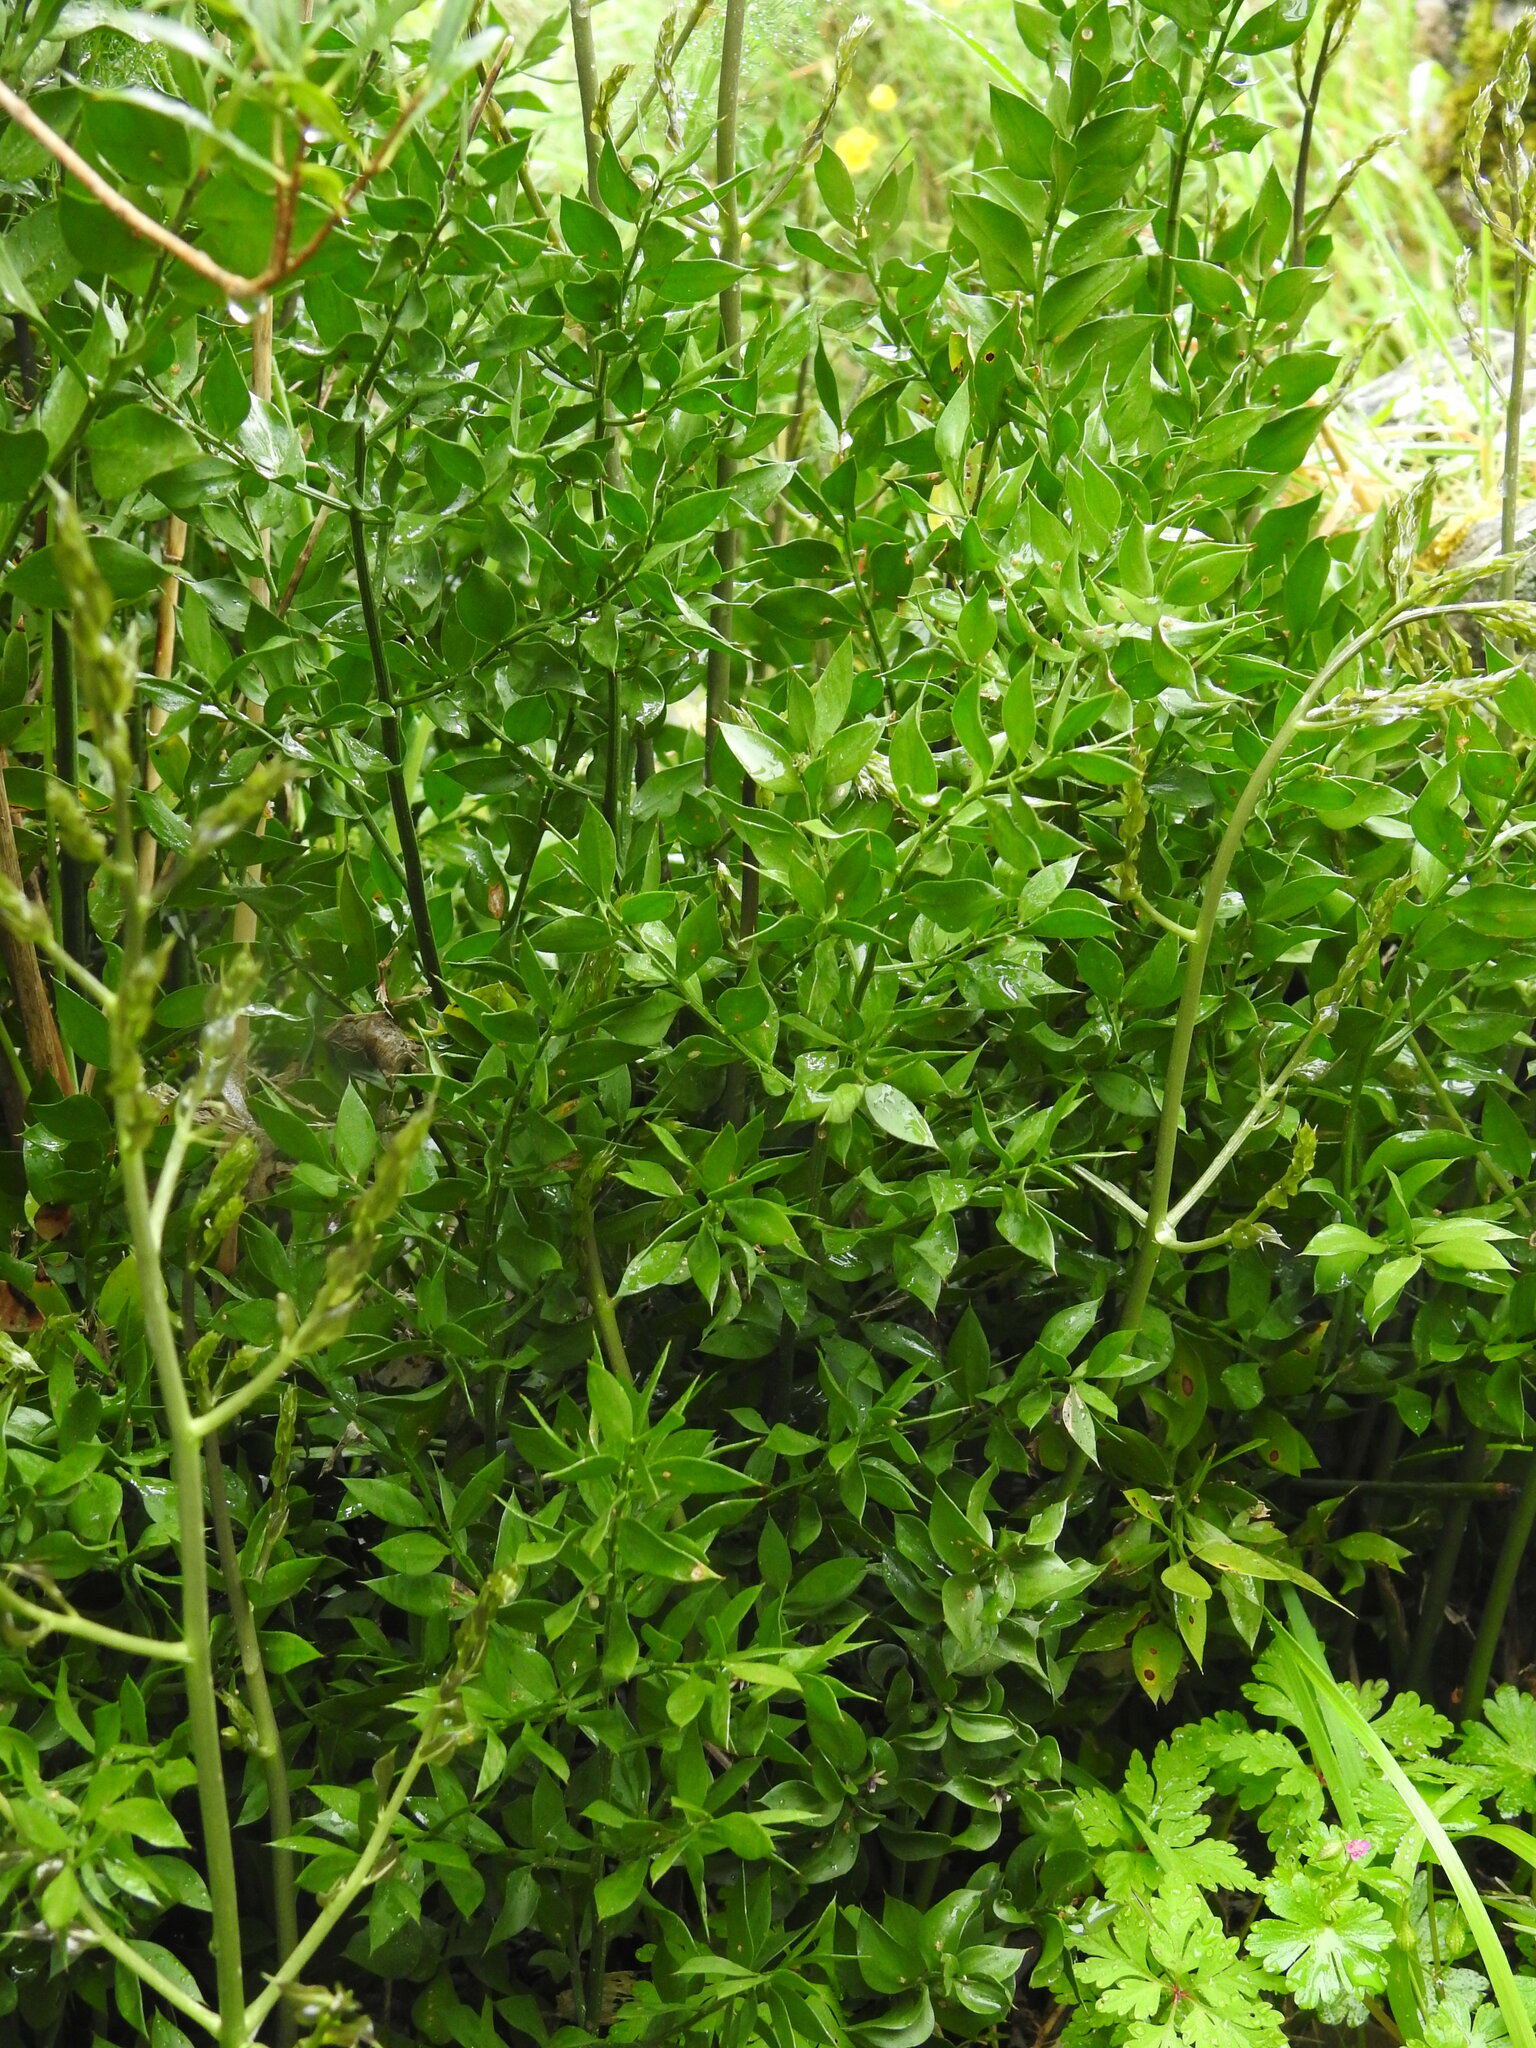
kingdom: Plantae
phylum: Tracheophyta
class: Liliopsida
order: Asparagales
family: Asparagaceae
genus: Ruscus
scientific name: Ruscus aculeatus
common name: Butcher's-broom
